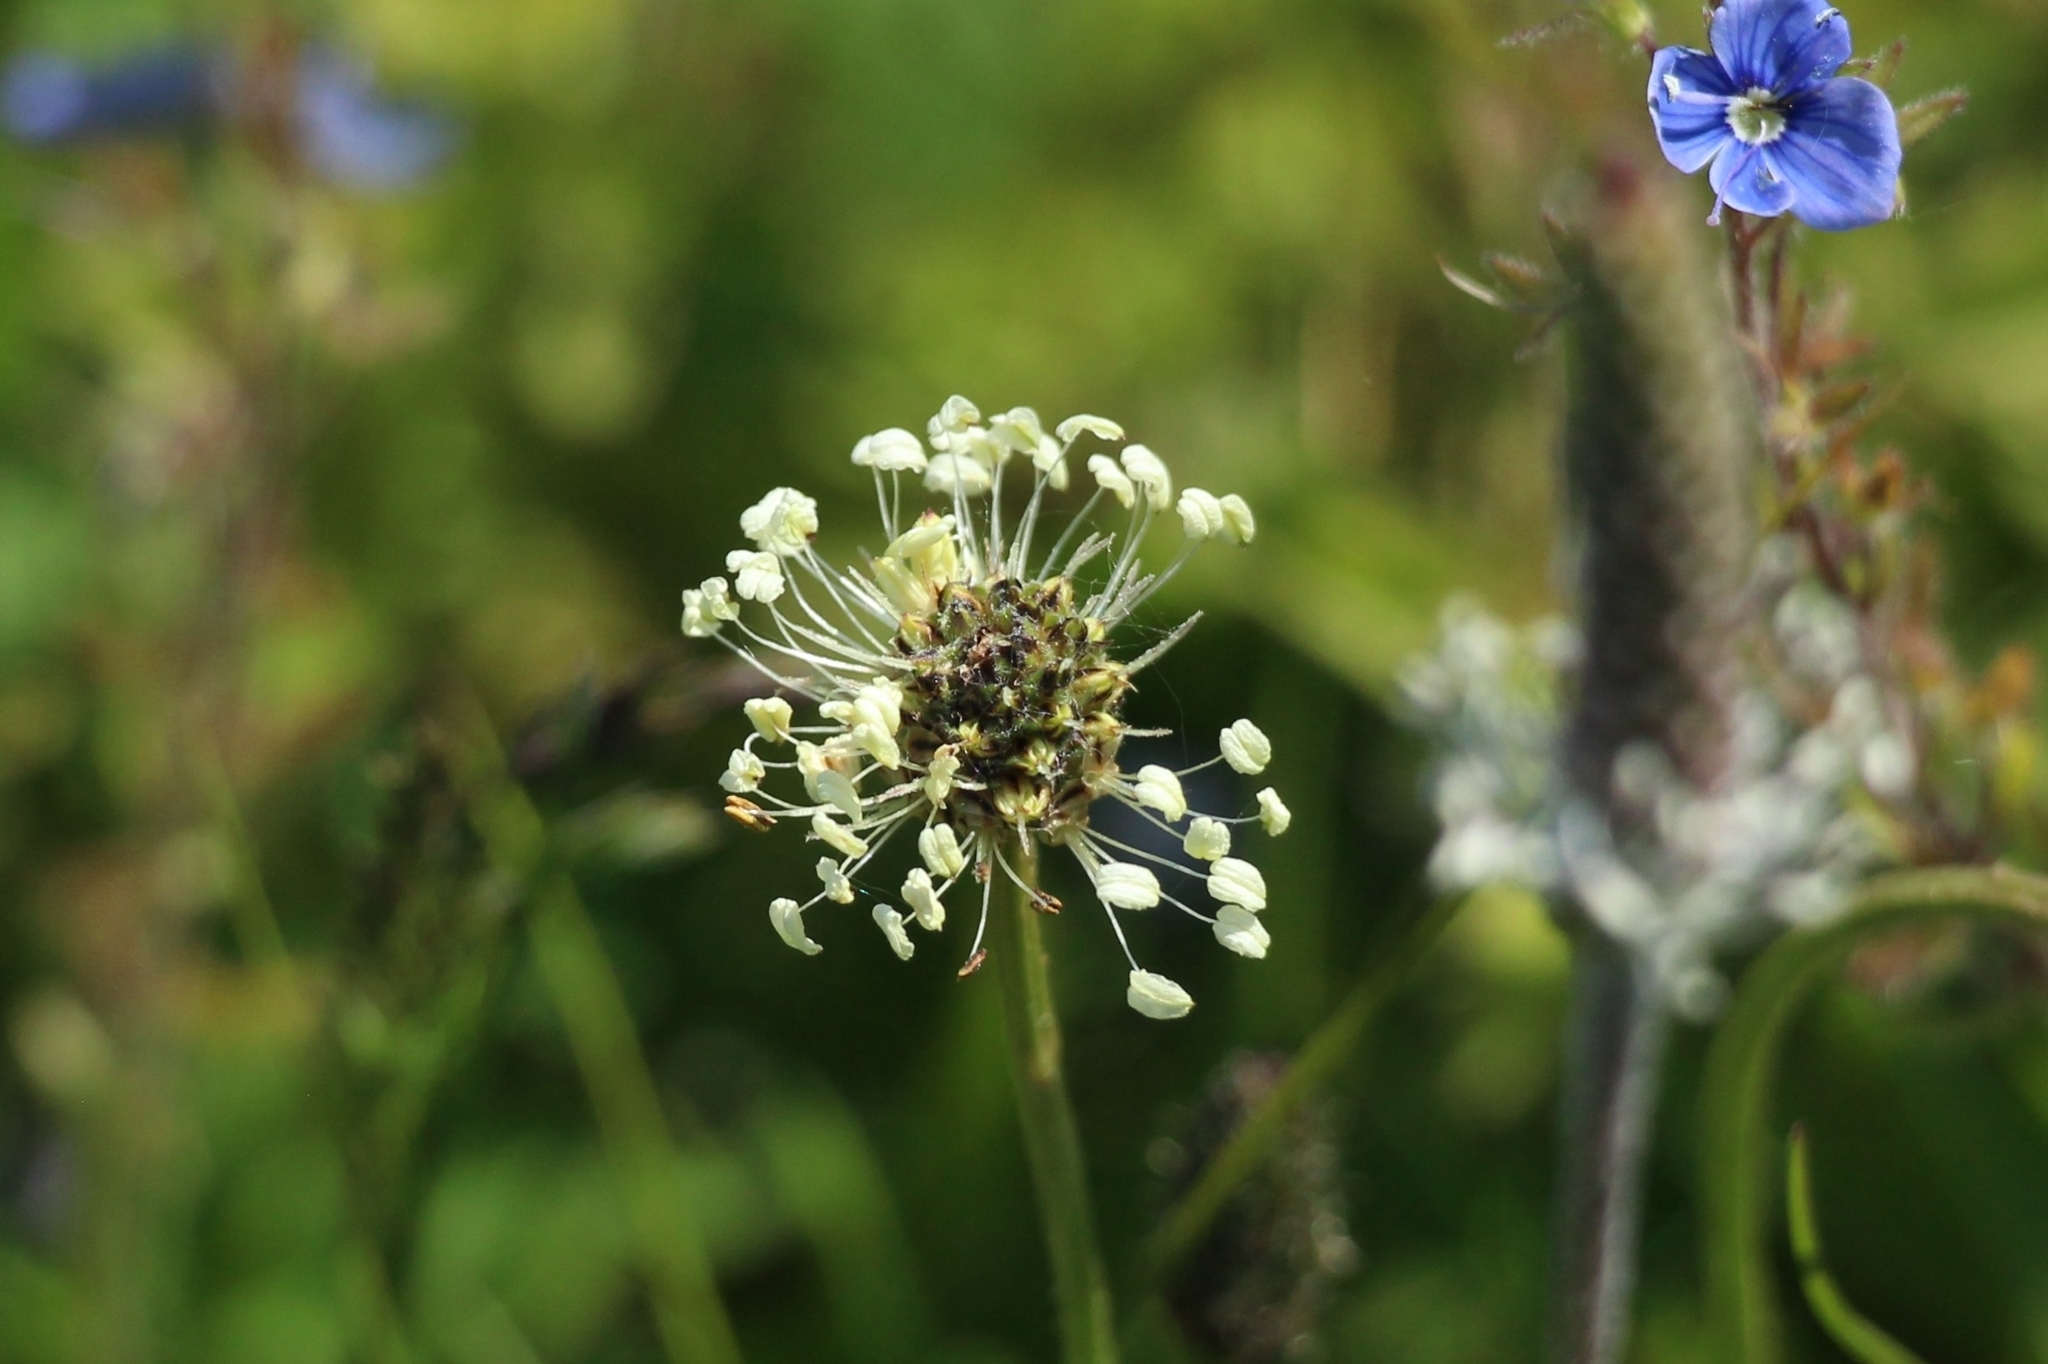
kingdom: Plantae
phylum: Tracheophyta
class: Magnoliopsida
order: Lamiales
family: Plantaginaceae
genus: Plantago
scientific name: Plantago lanceolata
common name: Ribwort plantain
